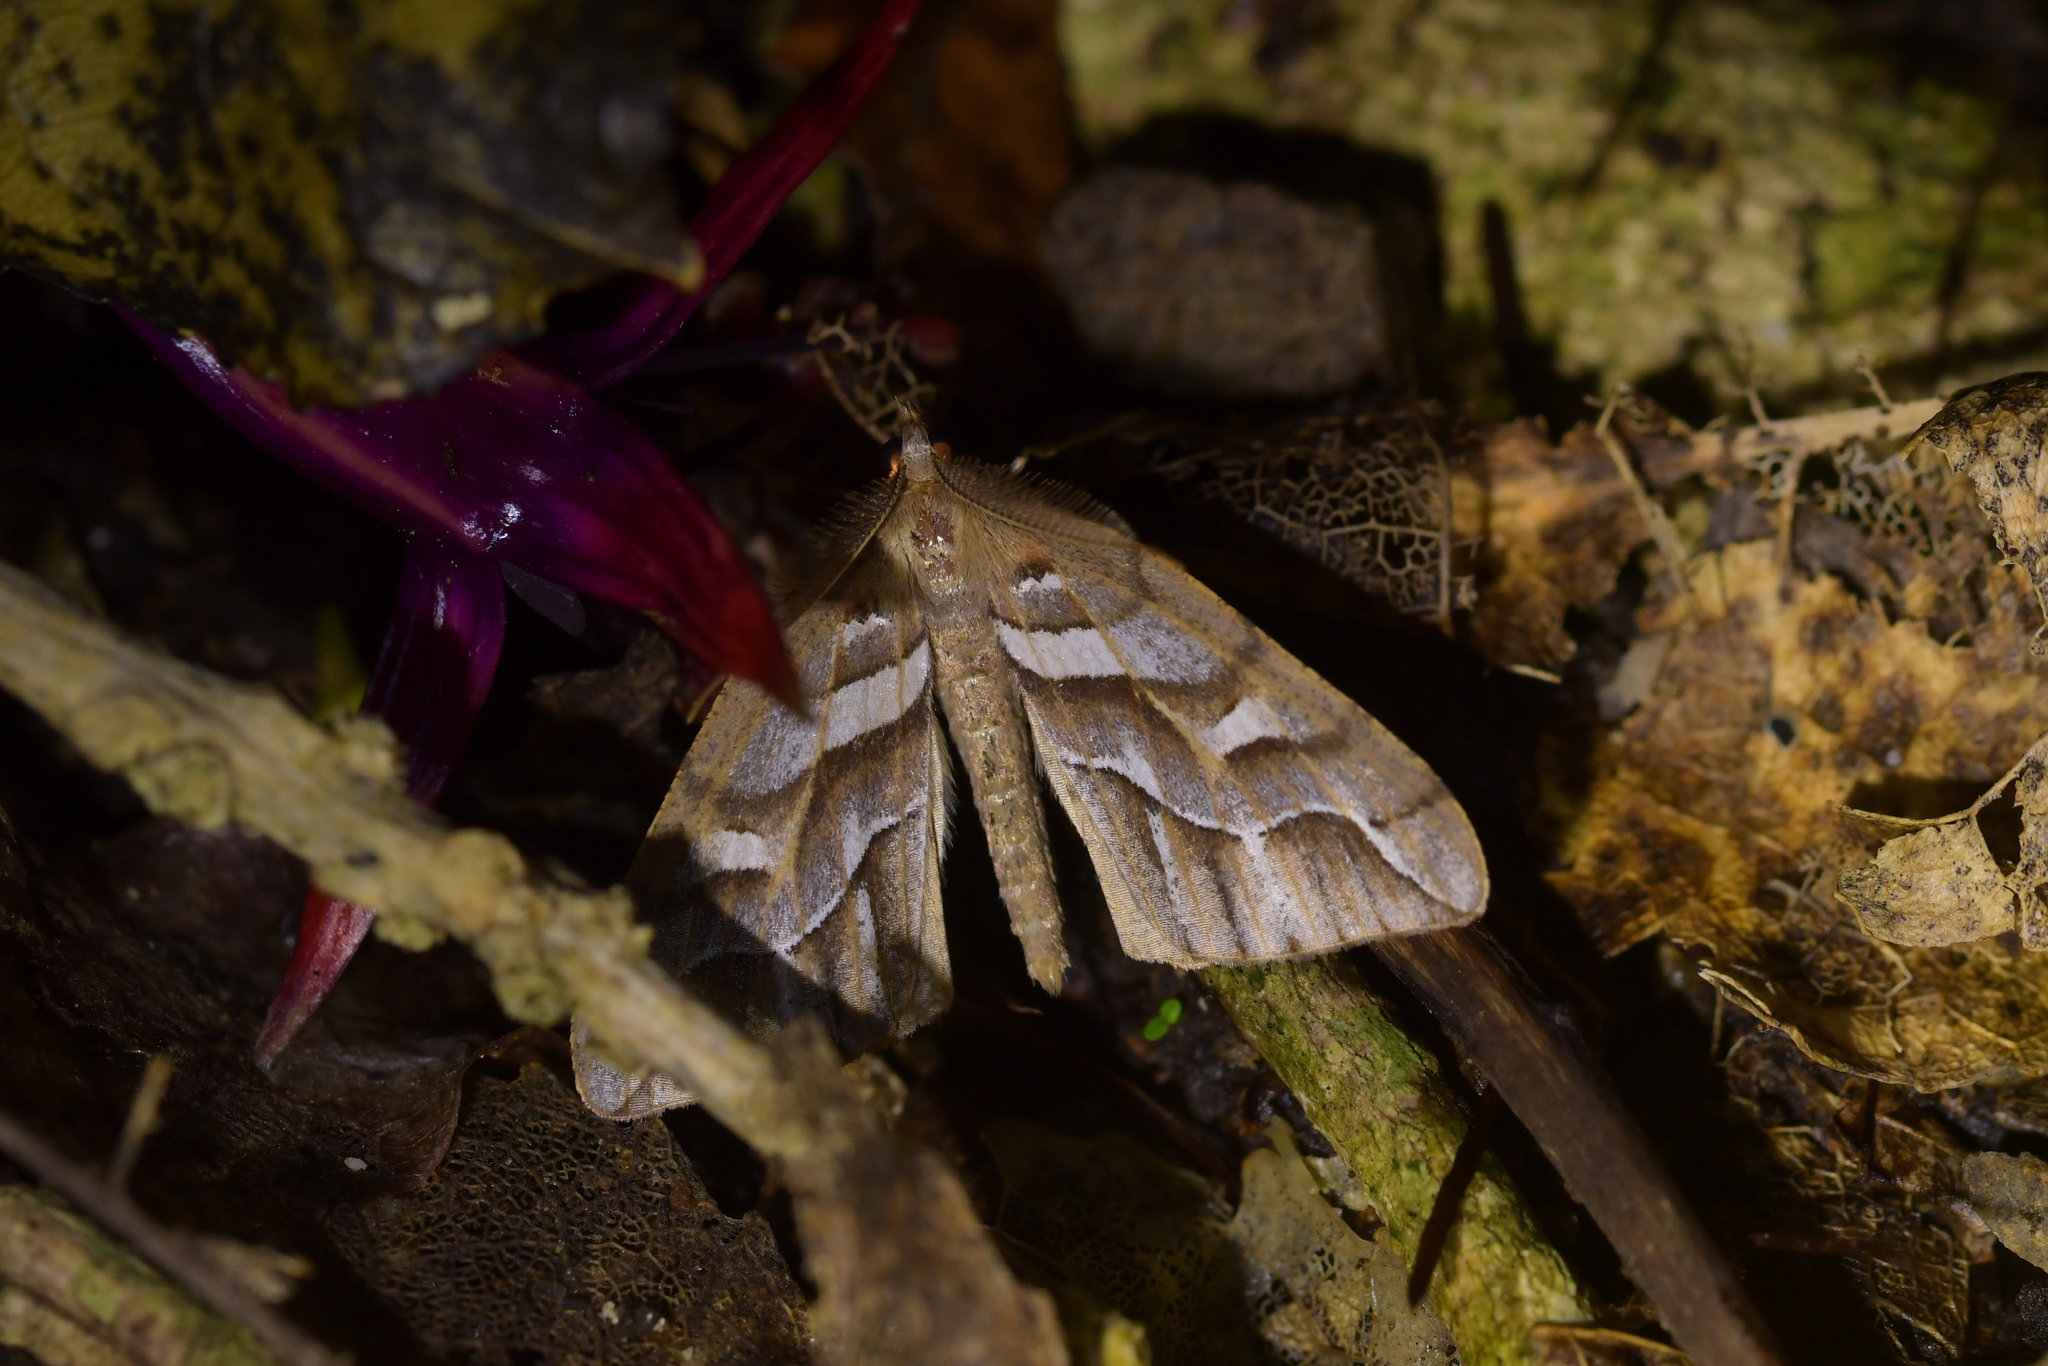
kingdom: Animalia
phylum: Arthropoda
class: Insecta
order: Lepidoptera
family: Geometridae
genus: Chalastra
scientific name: Chalastra aristarcha
